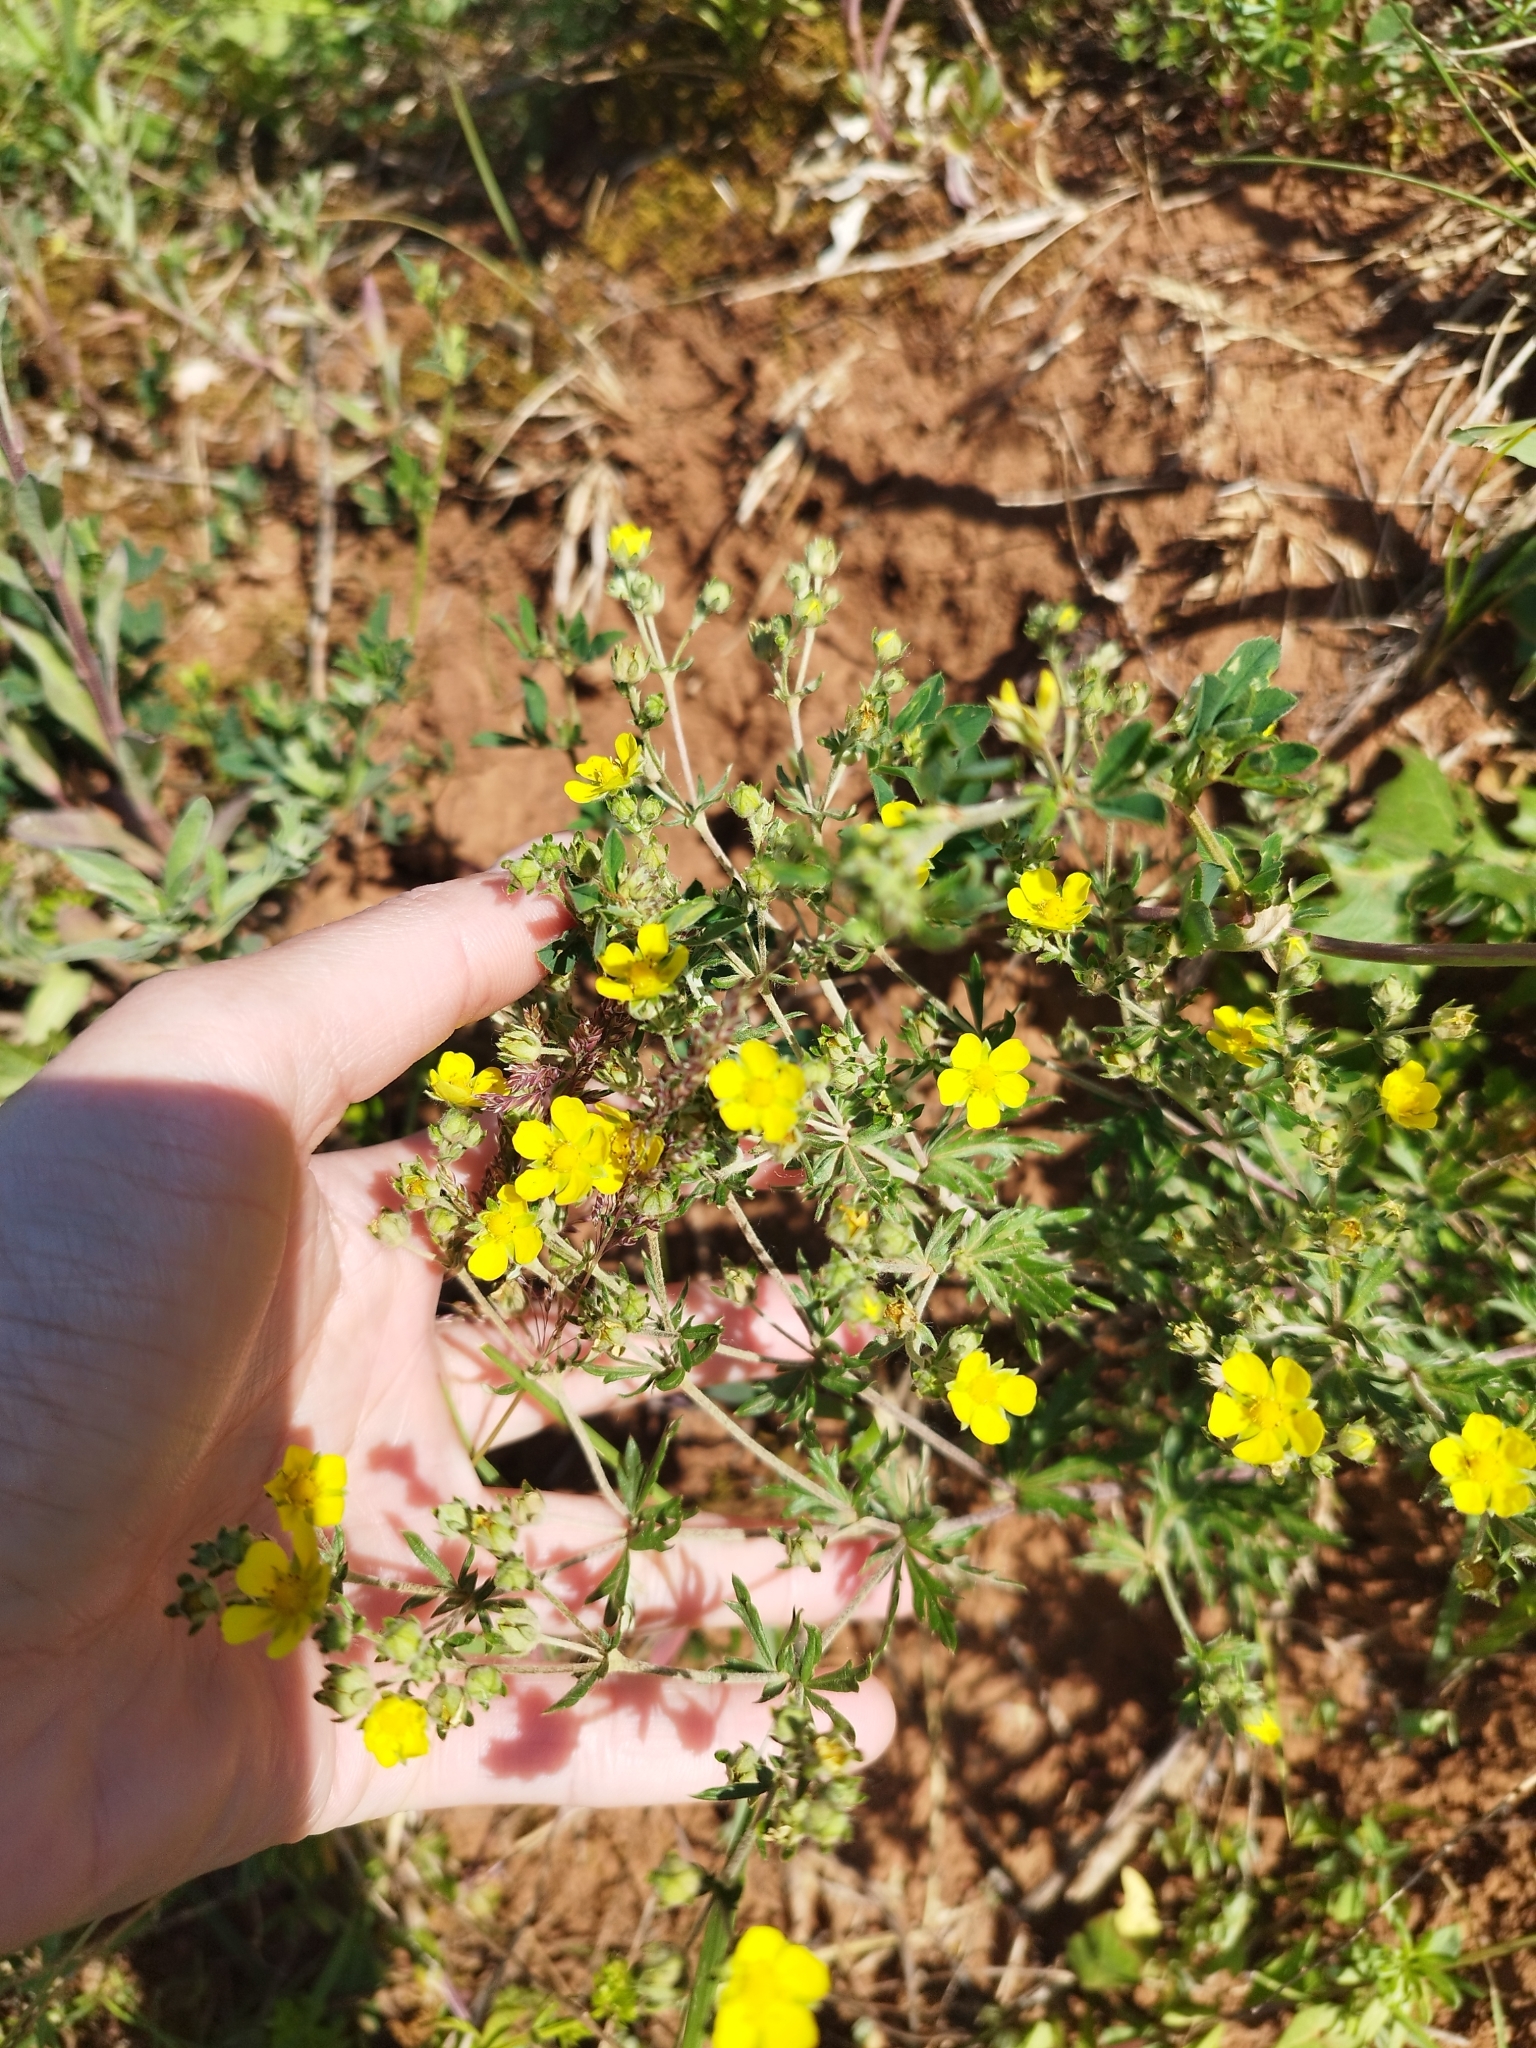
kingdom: Plantae
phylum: Tracheophyta
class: Magnoliopsida
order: Rosales
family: Rosaceae
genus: Potentilla
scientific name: Potentilla argentea
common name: Hoary cinquefoil
